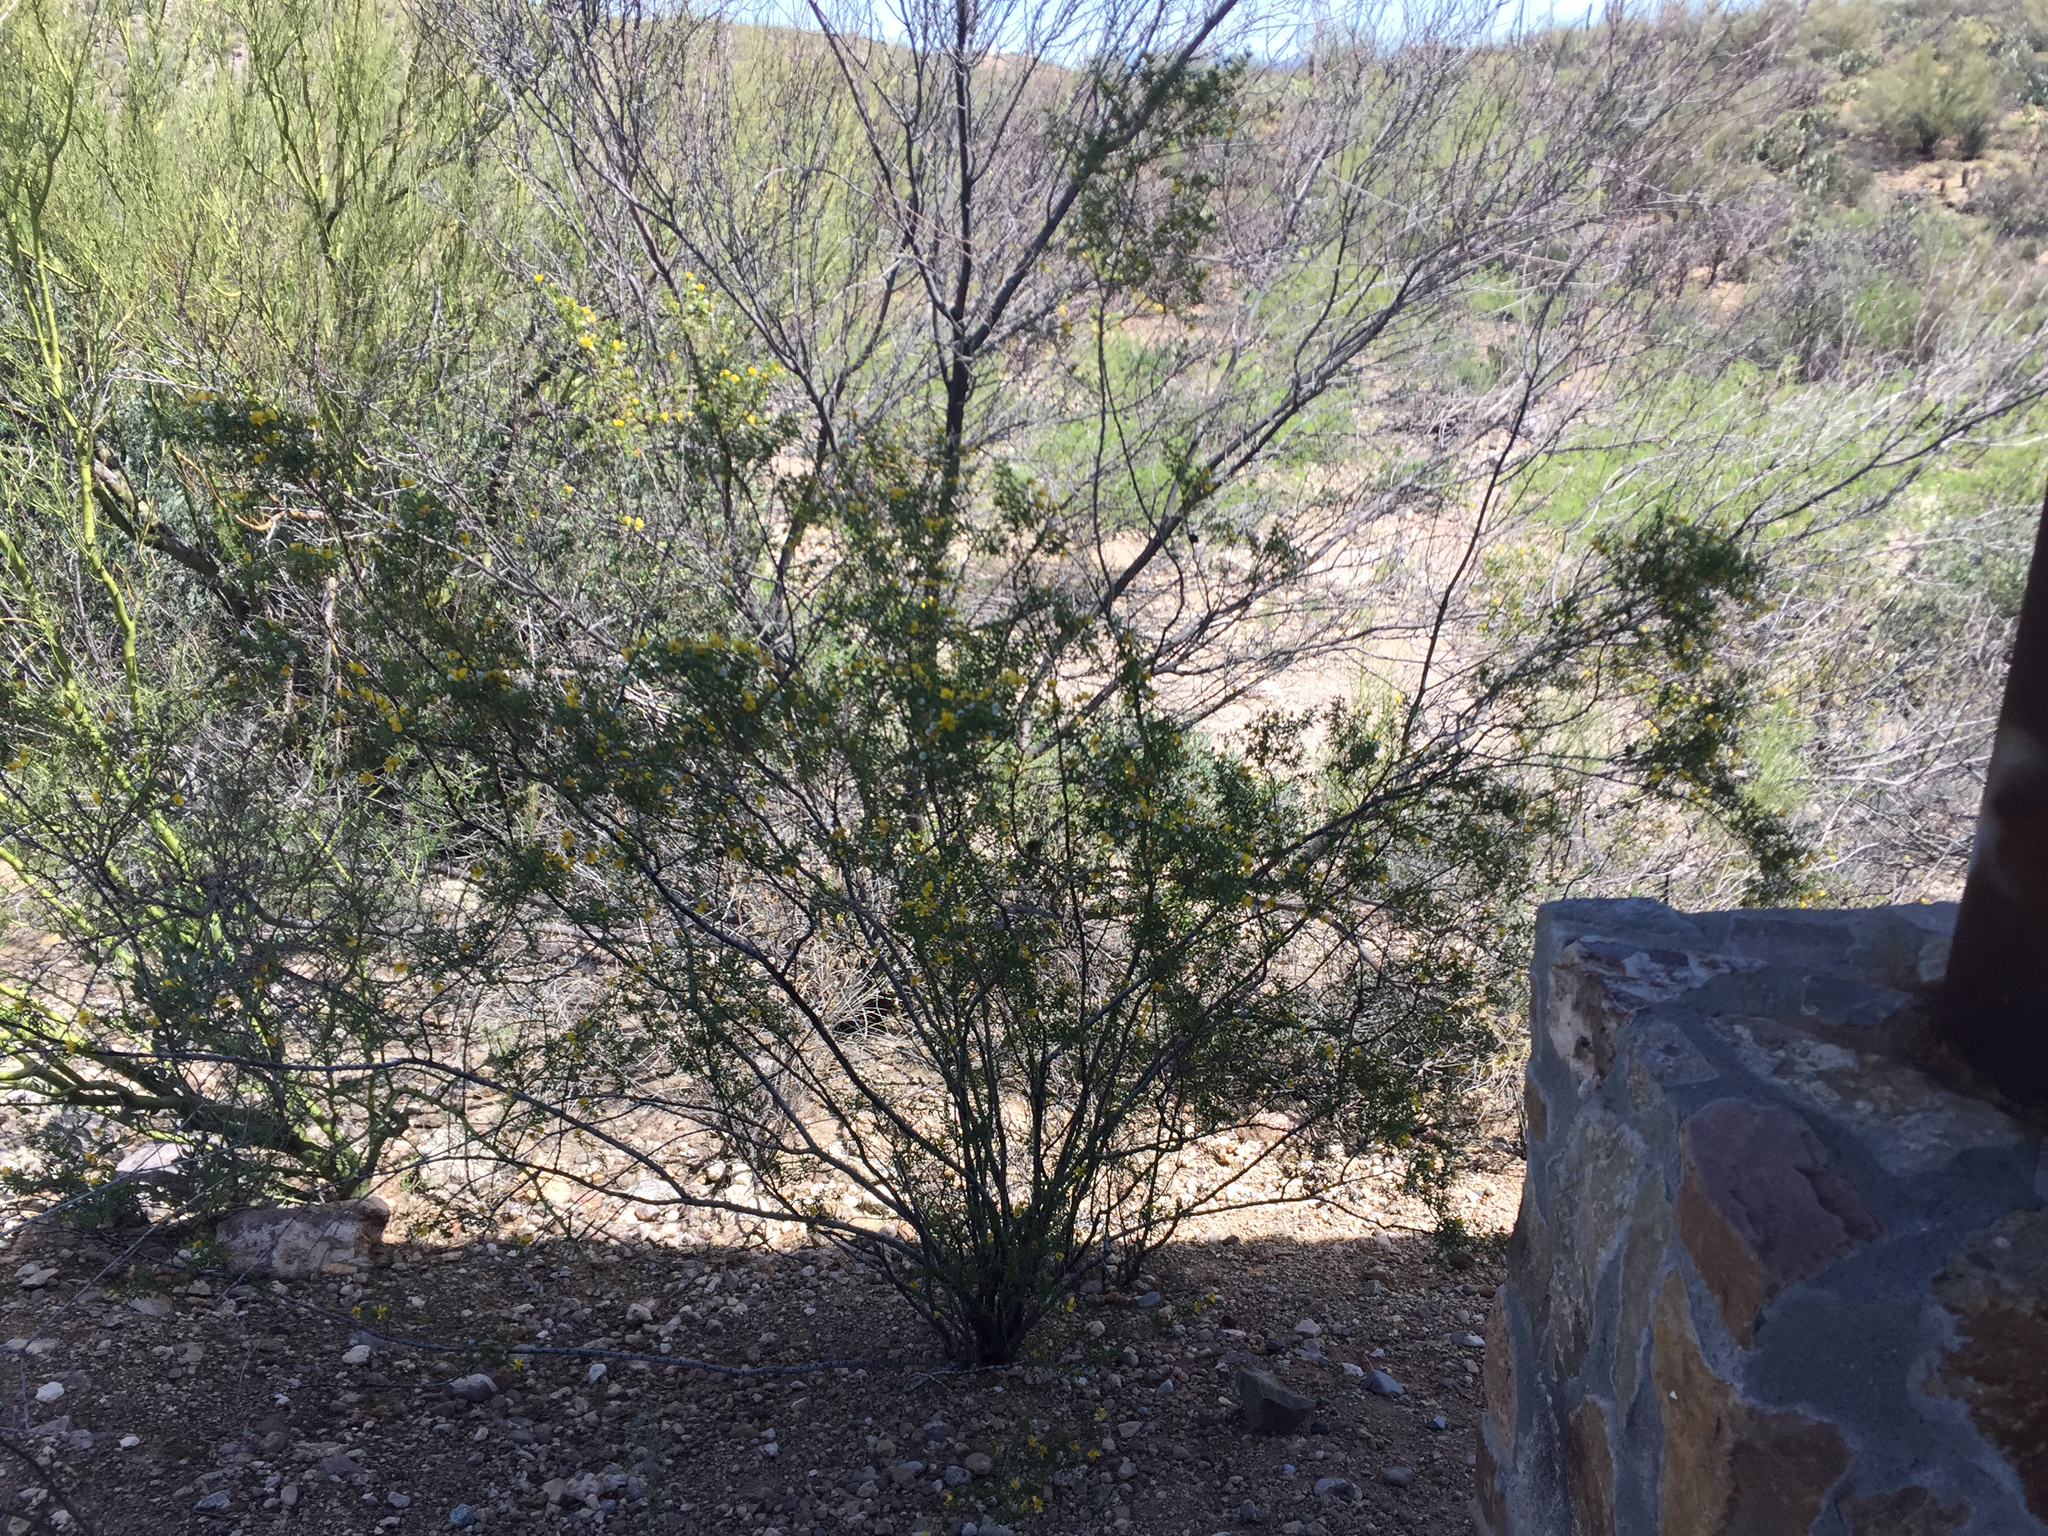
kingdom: Plantae
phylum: Tracheophyta
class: Magnoliopsida
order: Zygophyllales
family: Zygophyllaceae
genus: Larrea
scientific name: Larrea tridentata
